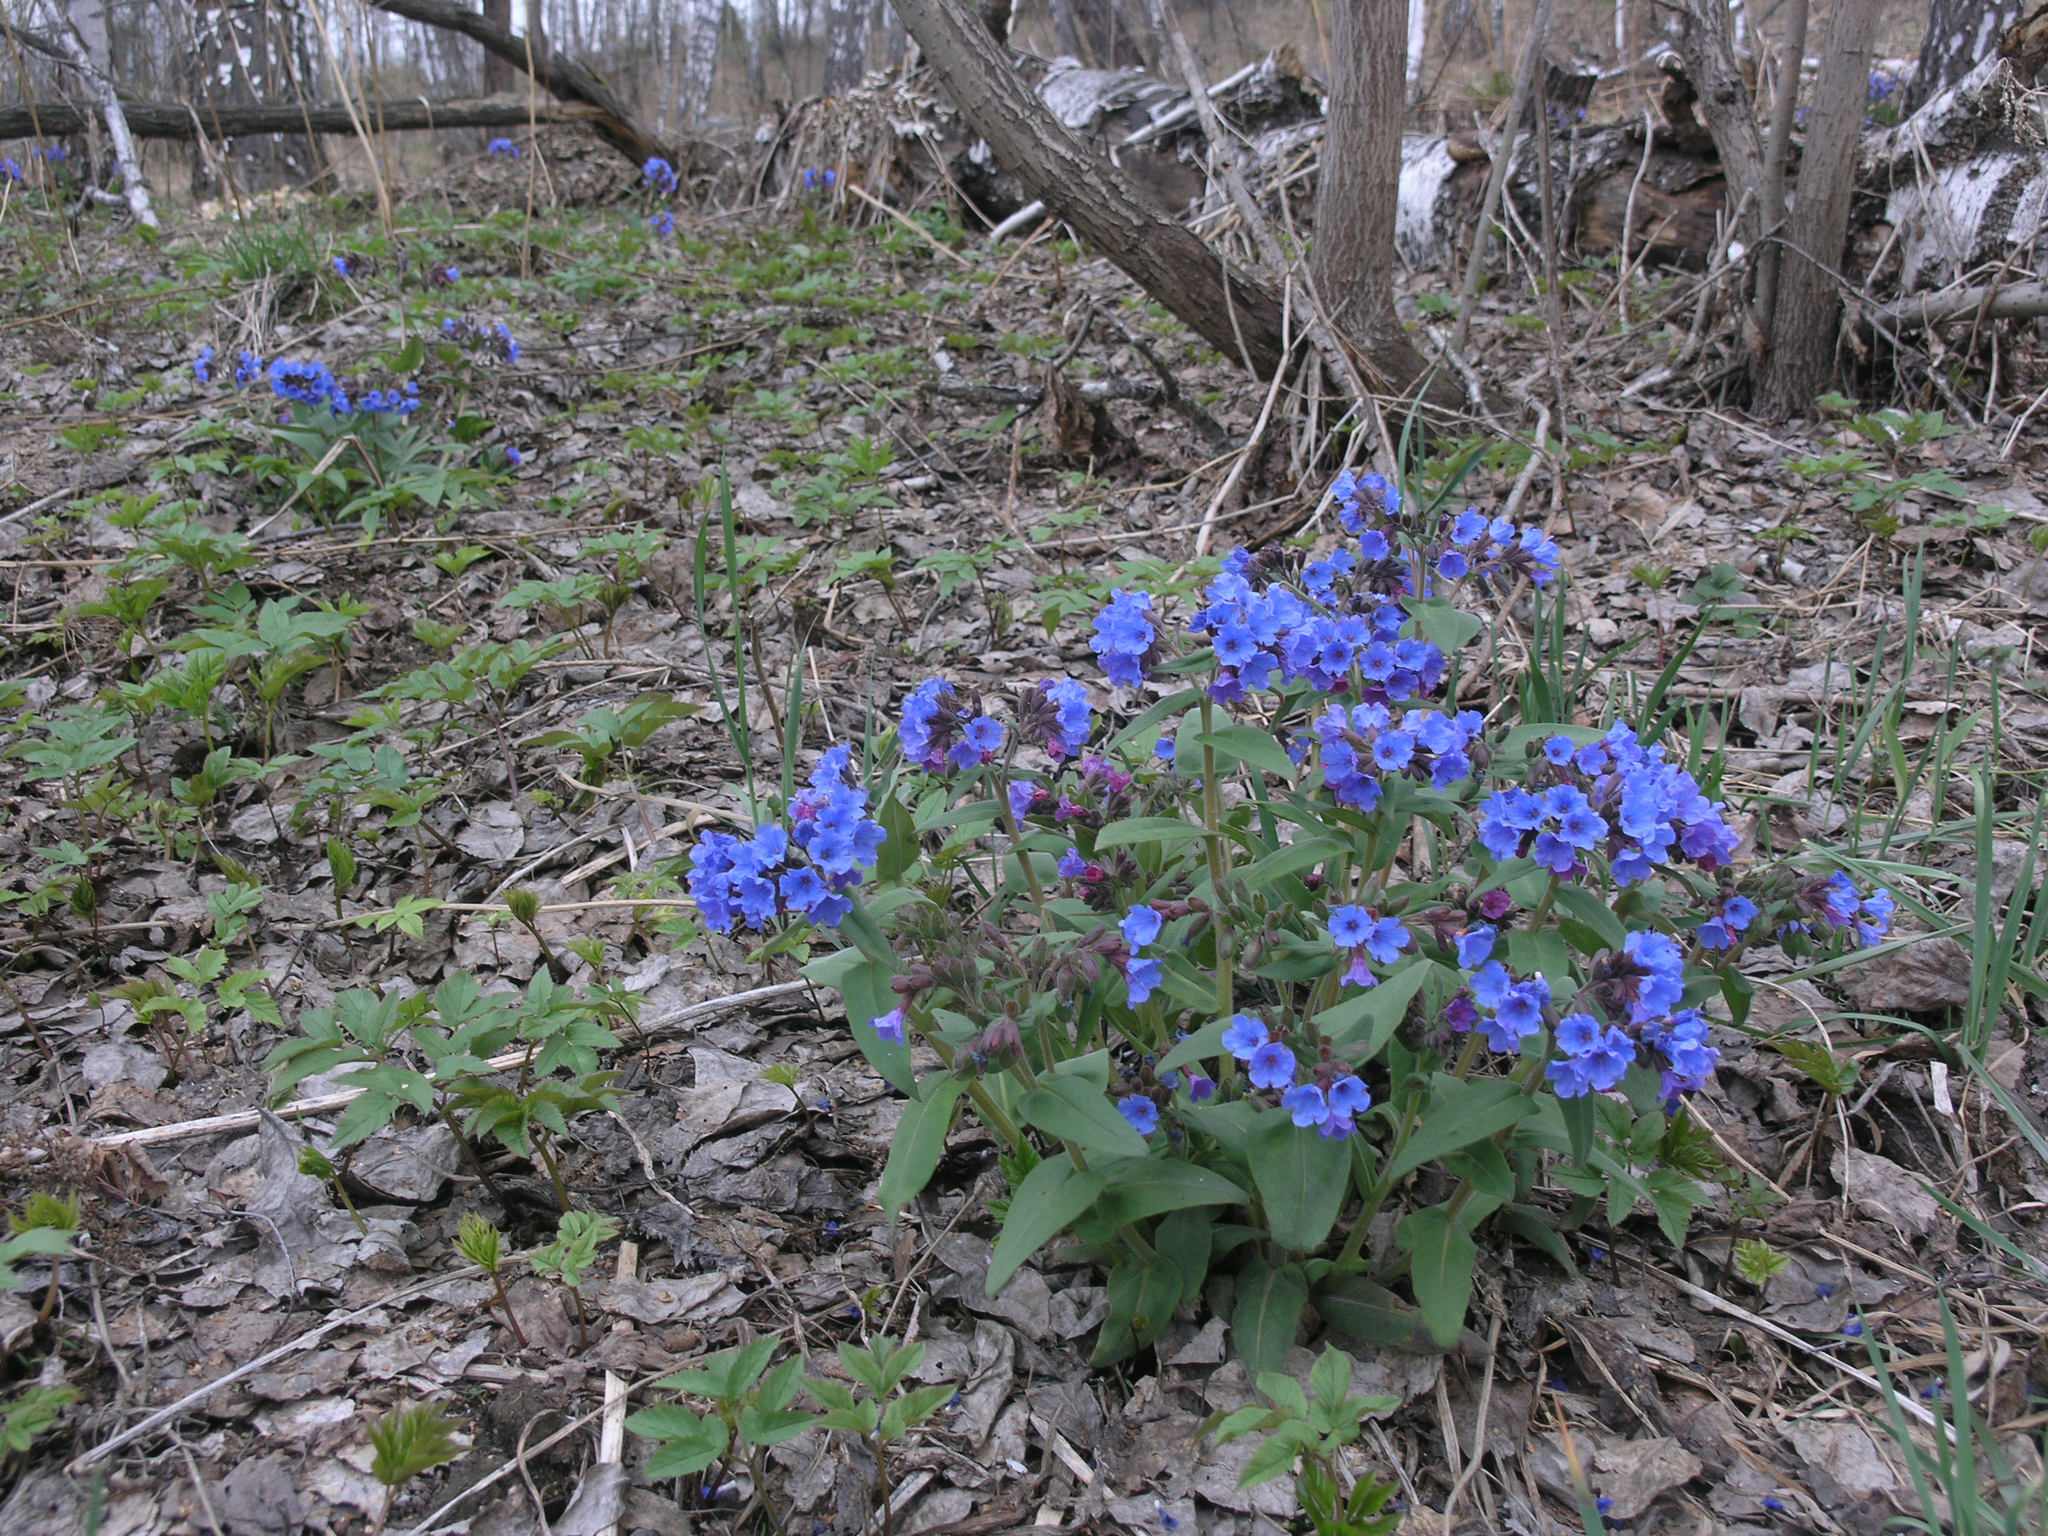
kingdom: Plantae
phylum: Tracheophyta
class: Magnoliopsida
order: Boraginales
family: Boraginaceae
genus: Pulmonaria
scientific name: Pulmonaria mollis
